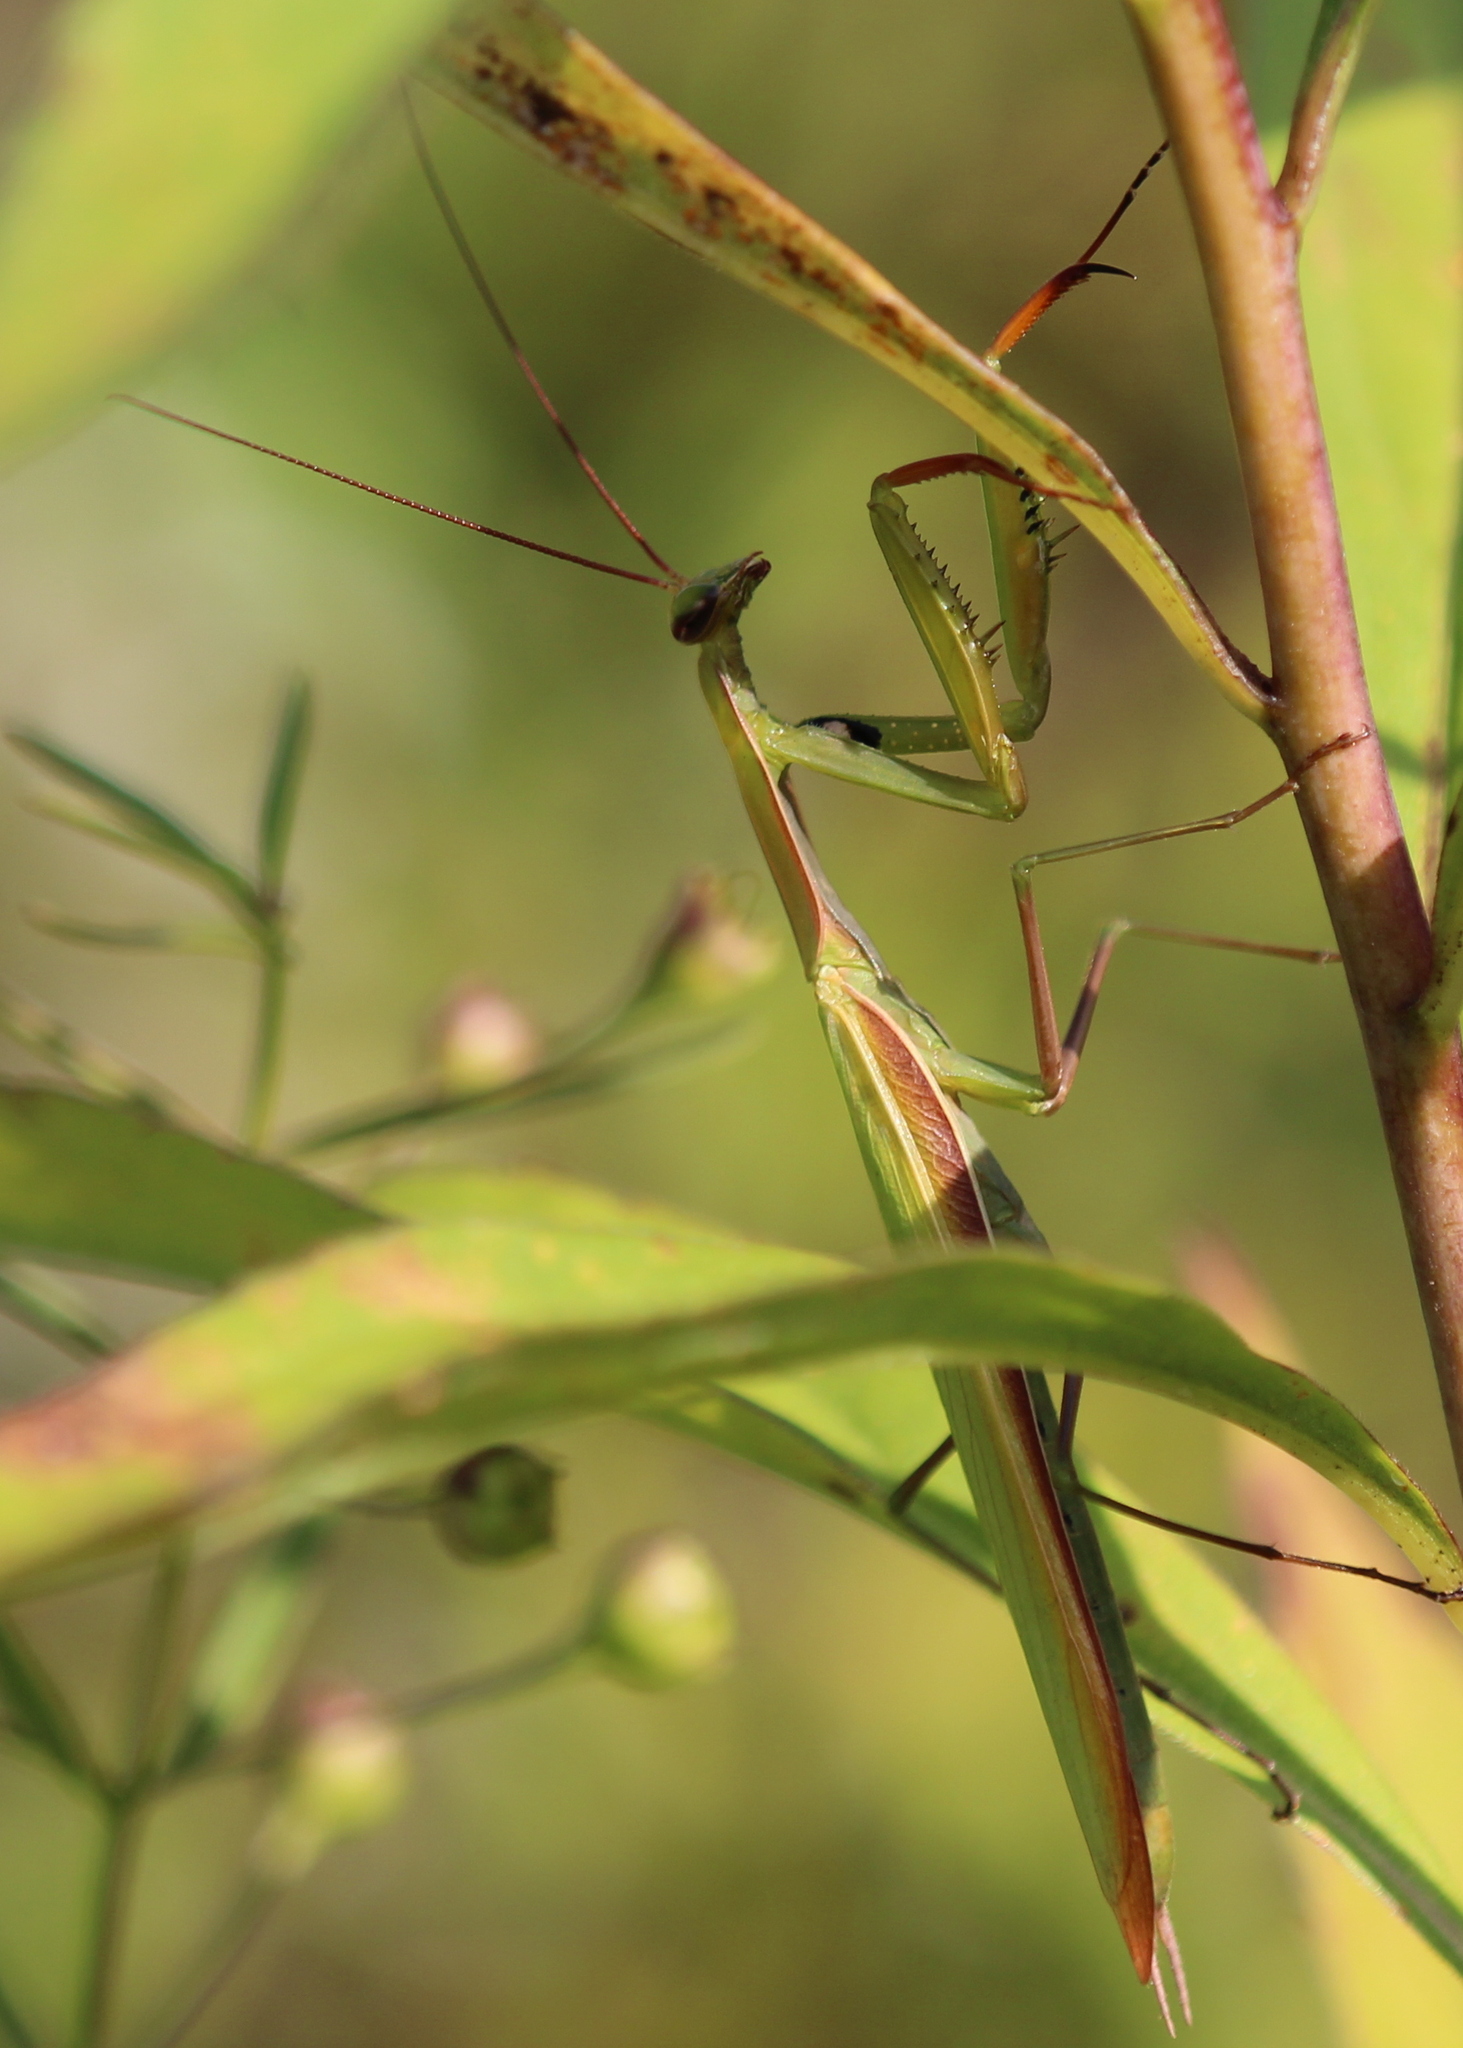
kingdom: Animalia
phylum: Arthropoda
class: Insecta
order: Mantodea
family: Mantidae
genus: Mantis
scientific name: Mantis religiosa
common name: Praying mantis
